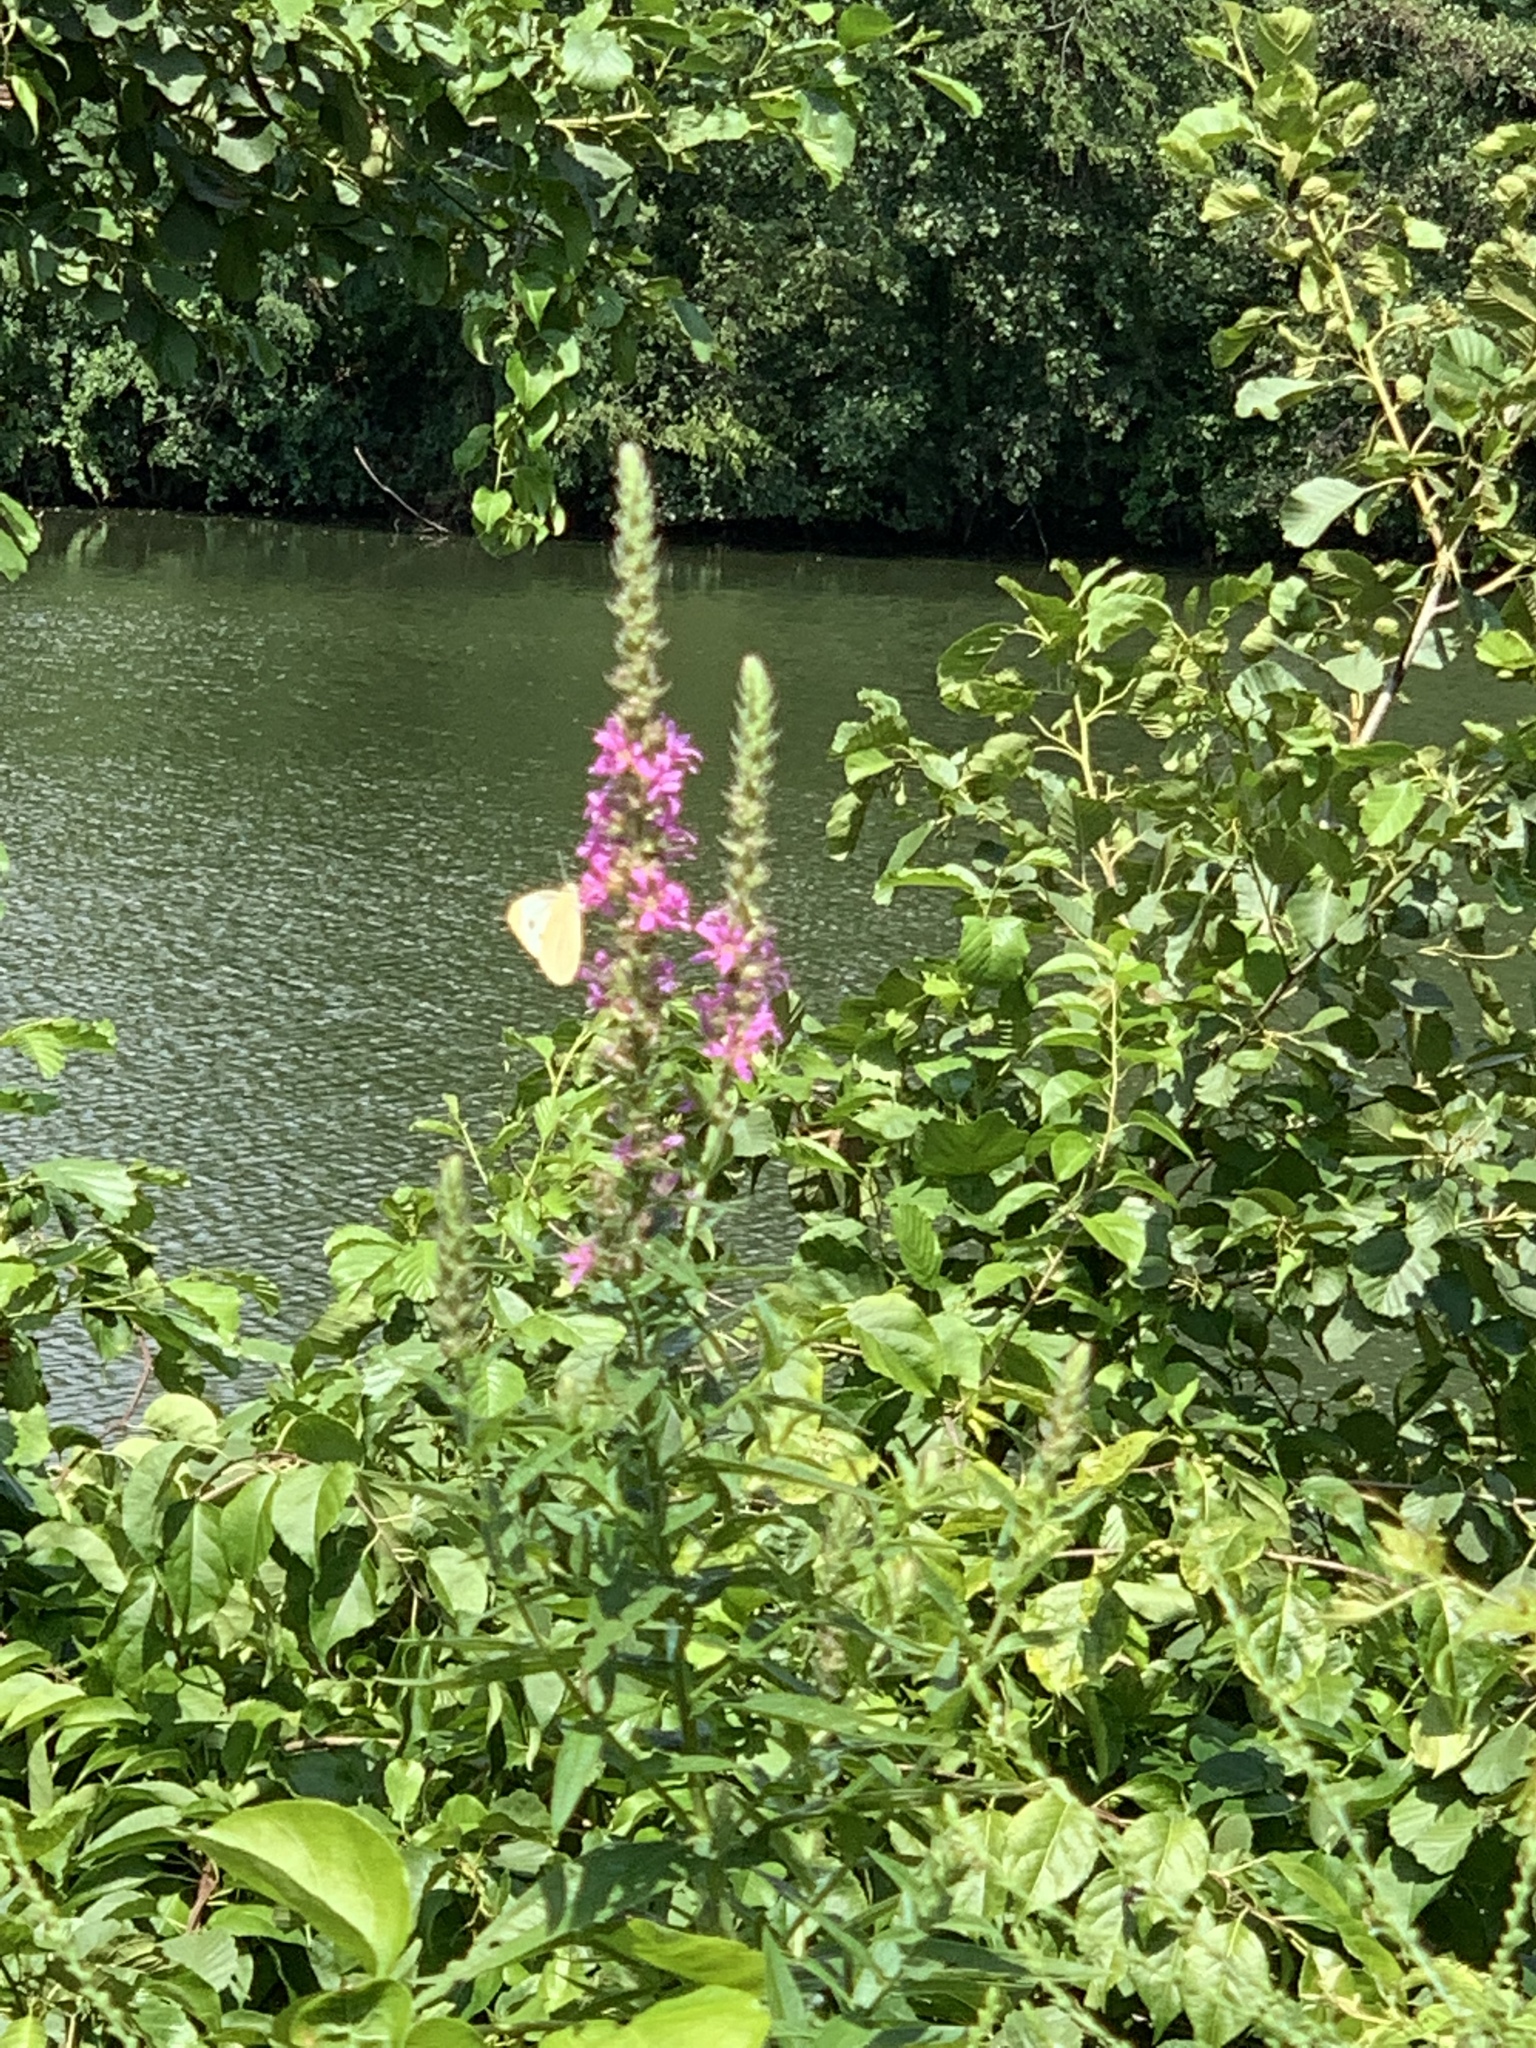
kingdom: Plantae
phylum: Tracheophyta
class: Magnoliopsida
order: Myrtales
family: Lythraceae
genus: Lythrum
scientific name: Lythrum salicaria
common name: Purple loosestrife
